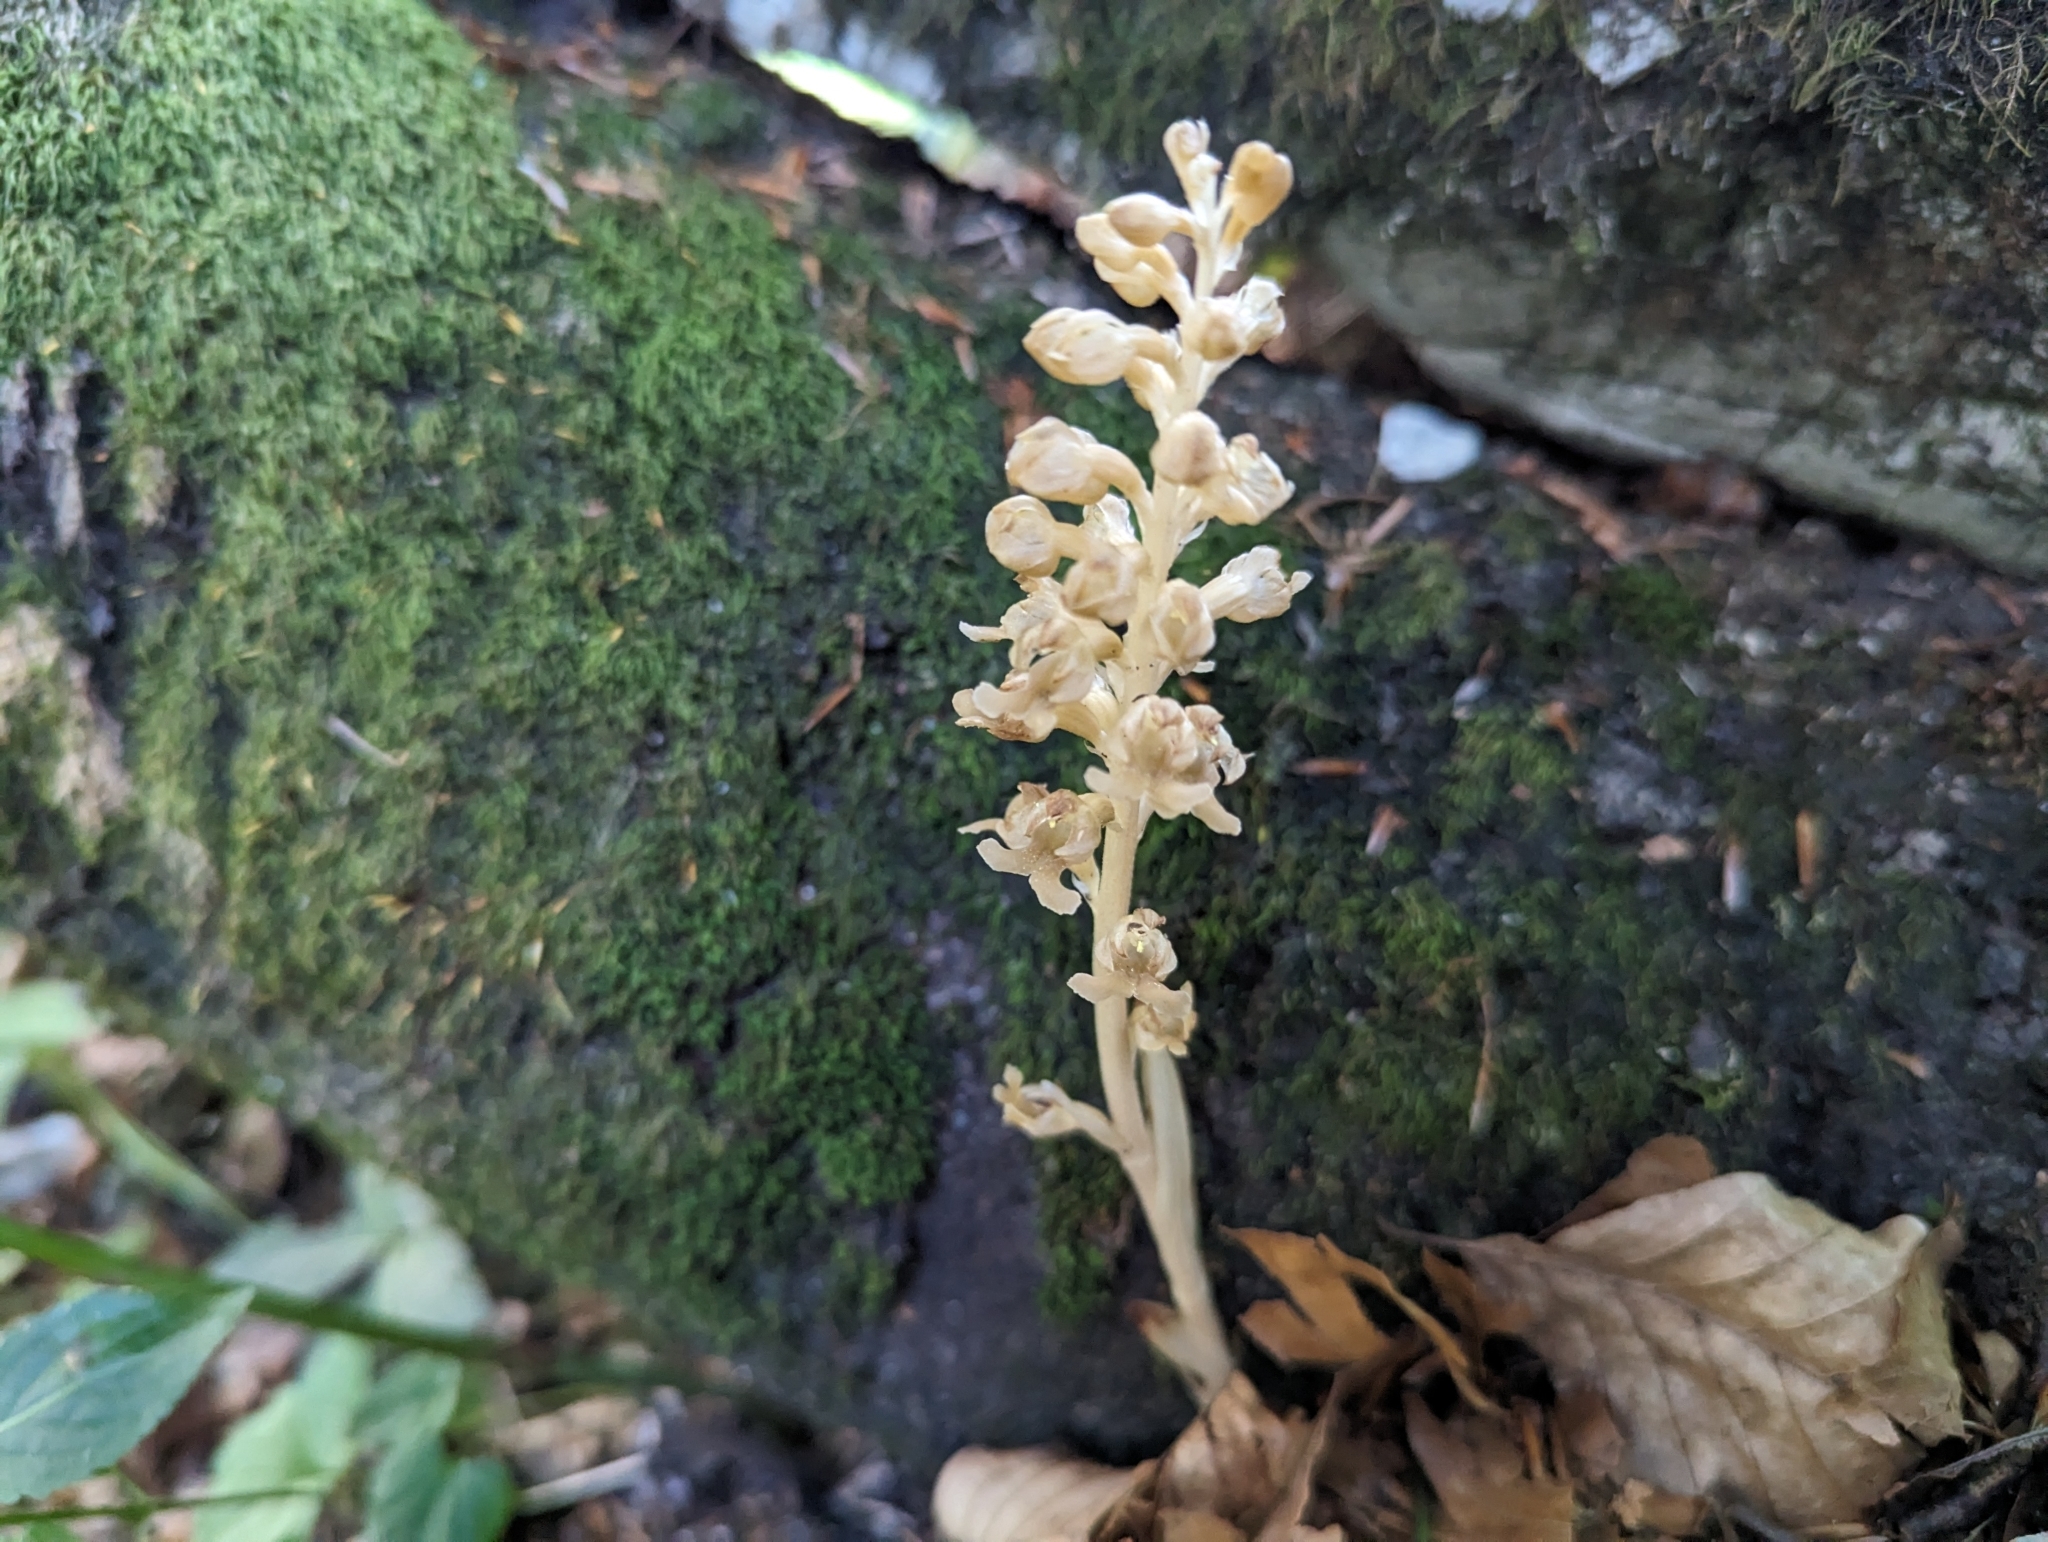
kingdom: Plantae
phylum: Tracheophyta
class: Liliopsida
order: Asparagales
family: Orchidaceae
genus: Neottia
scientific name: Neottia nidus-avis
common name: Bird's-nest orchid
